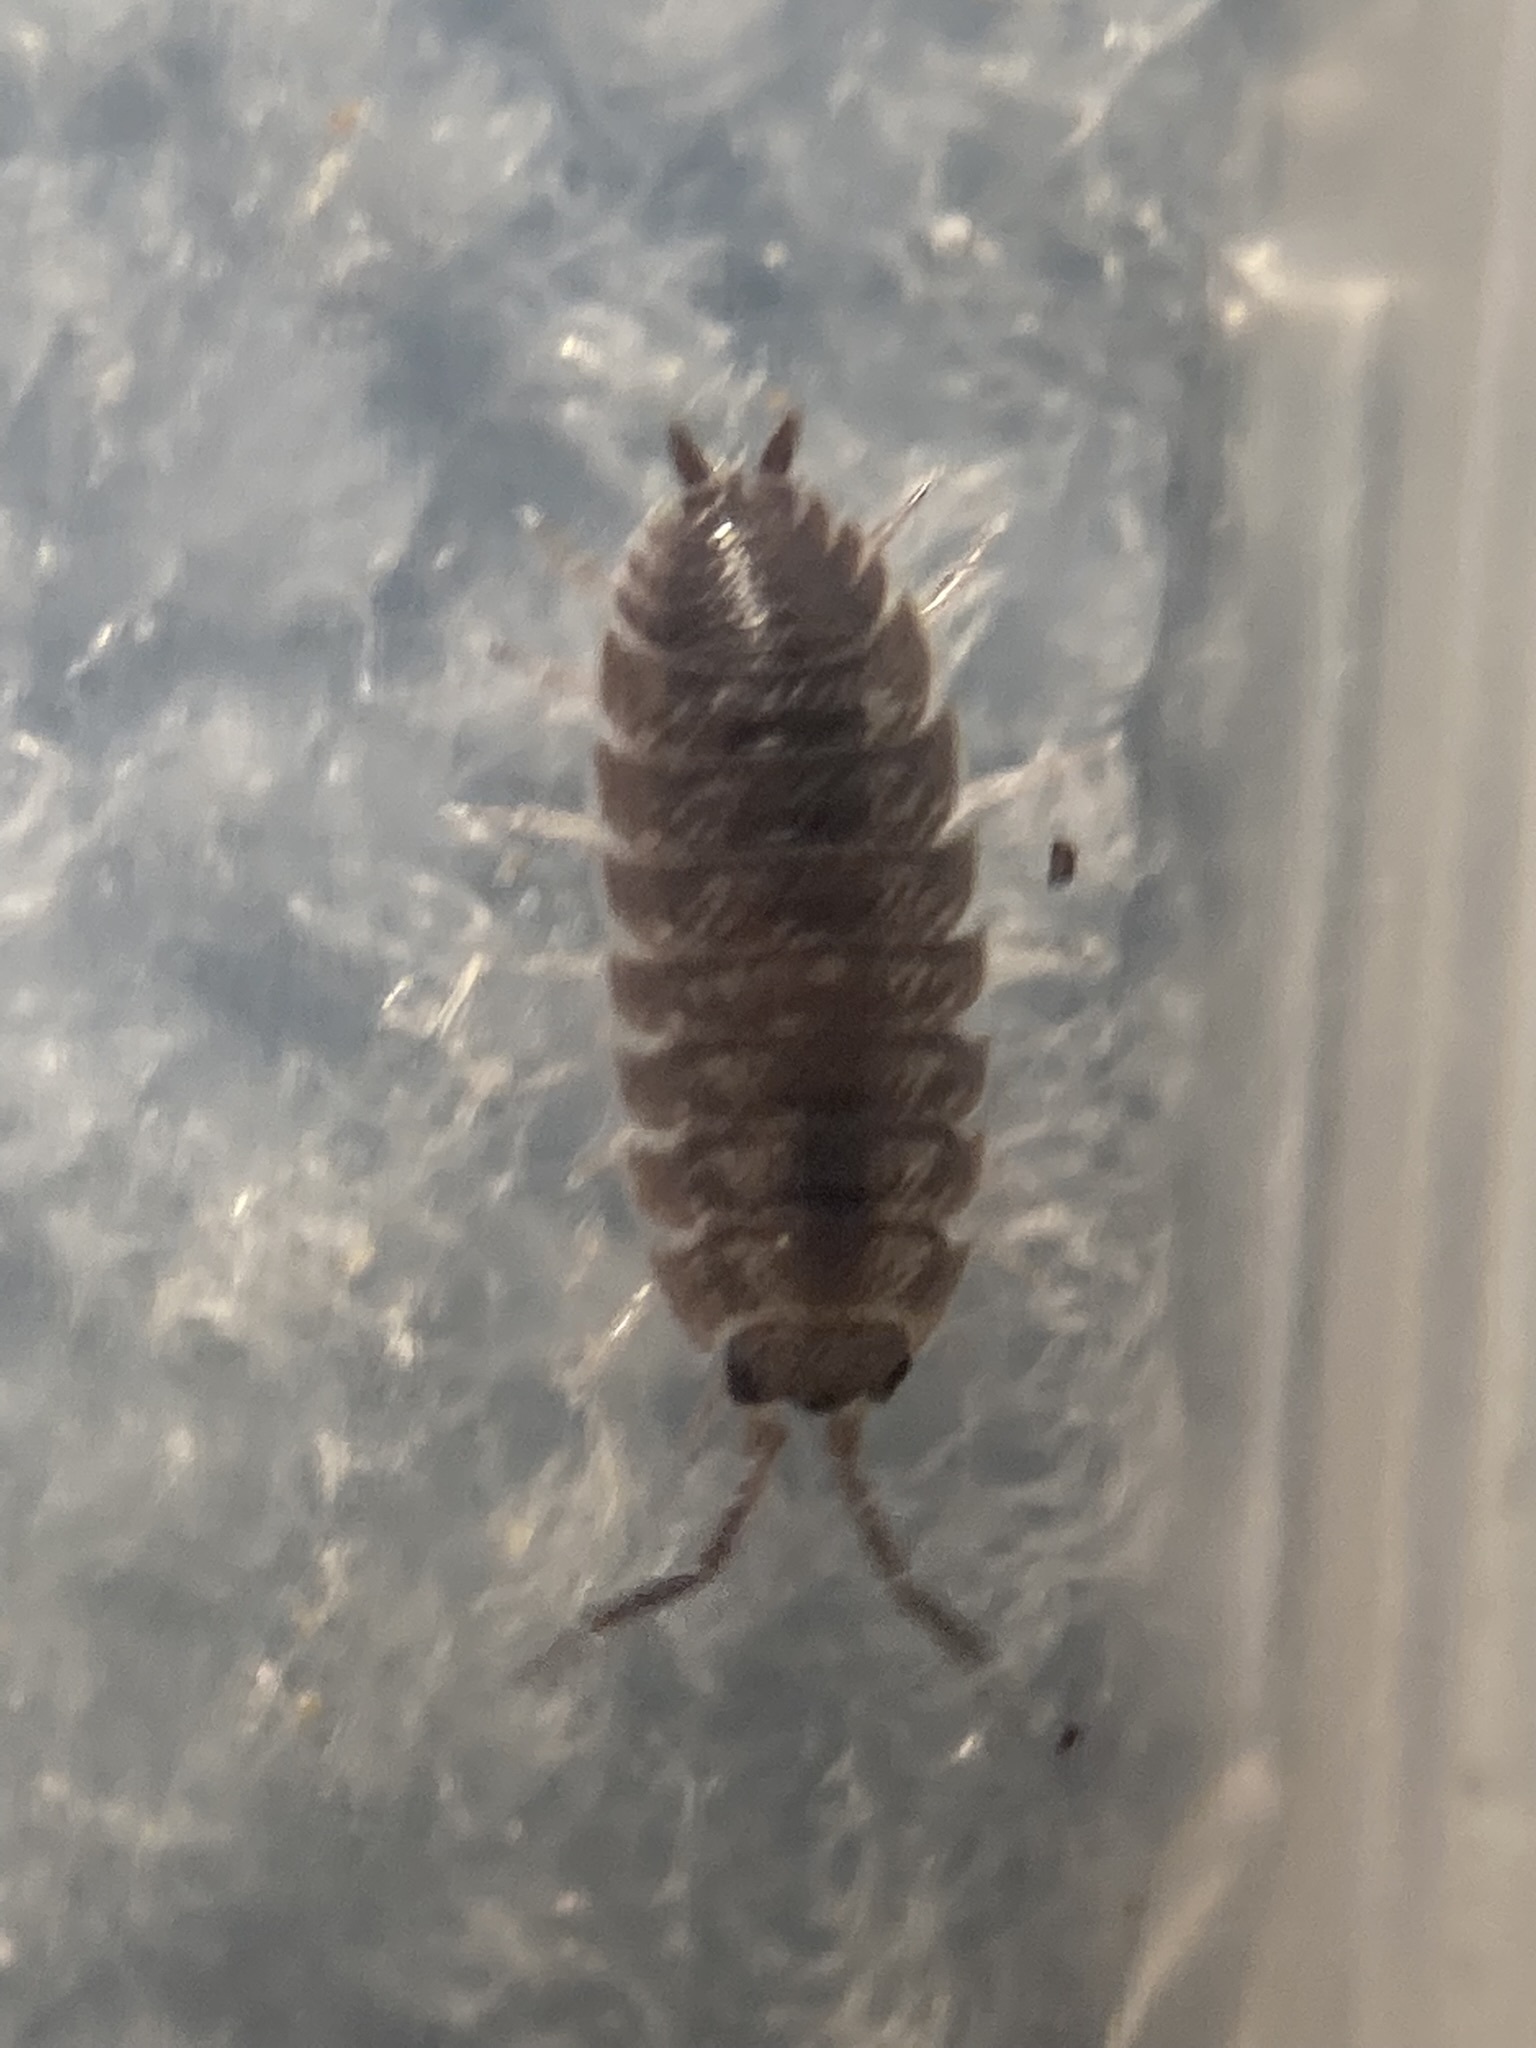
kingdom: Animalia
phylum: Arthropoda
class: Malacostraca
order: Isopoda
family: Porcellionidae
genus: Porcellio
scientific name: Porcellio scaber
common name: Common rough woodlouse
